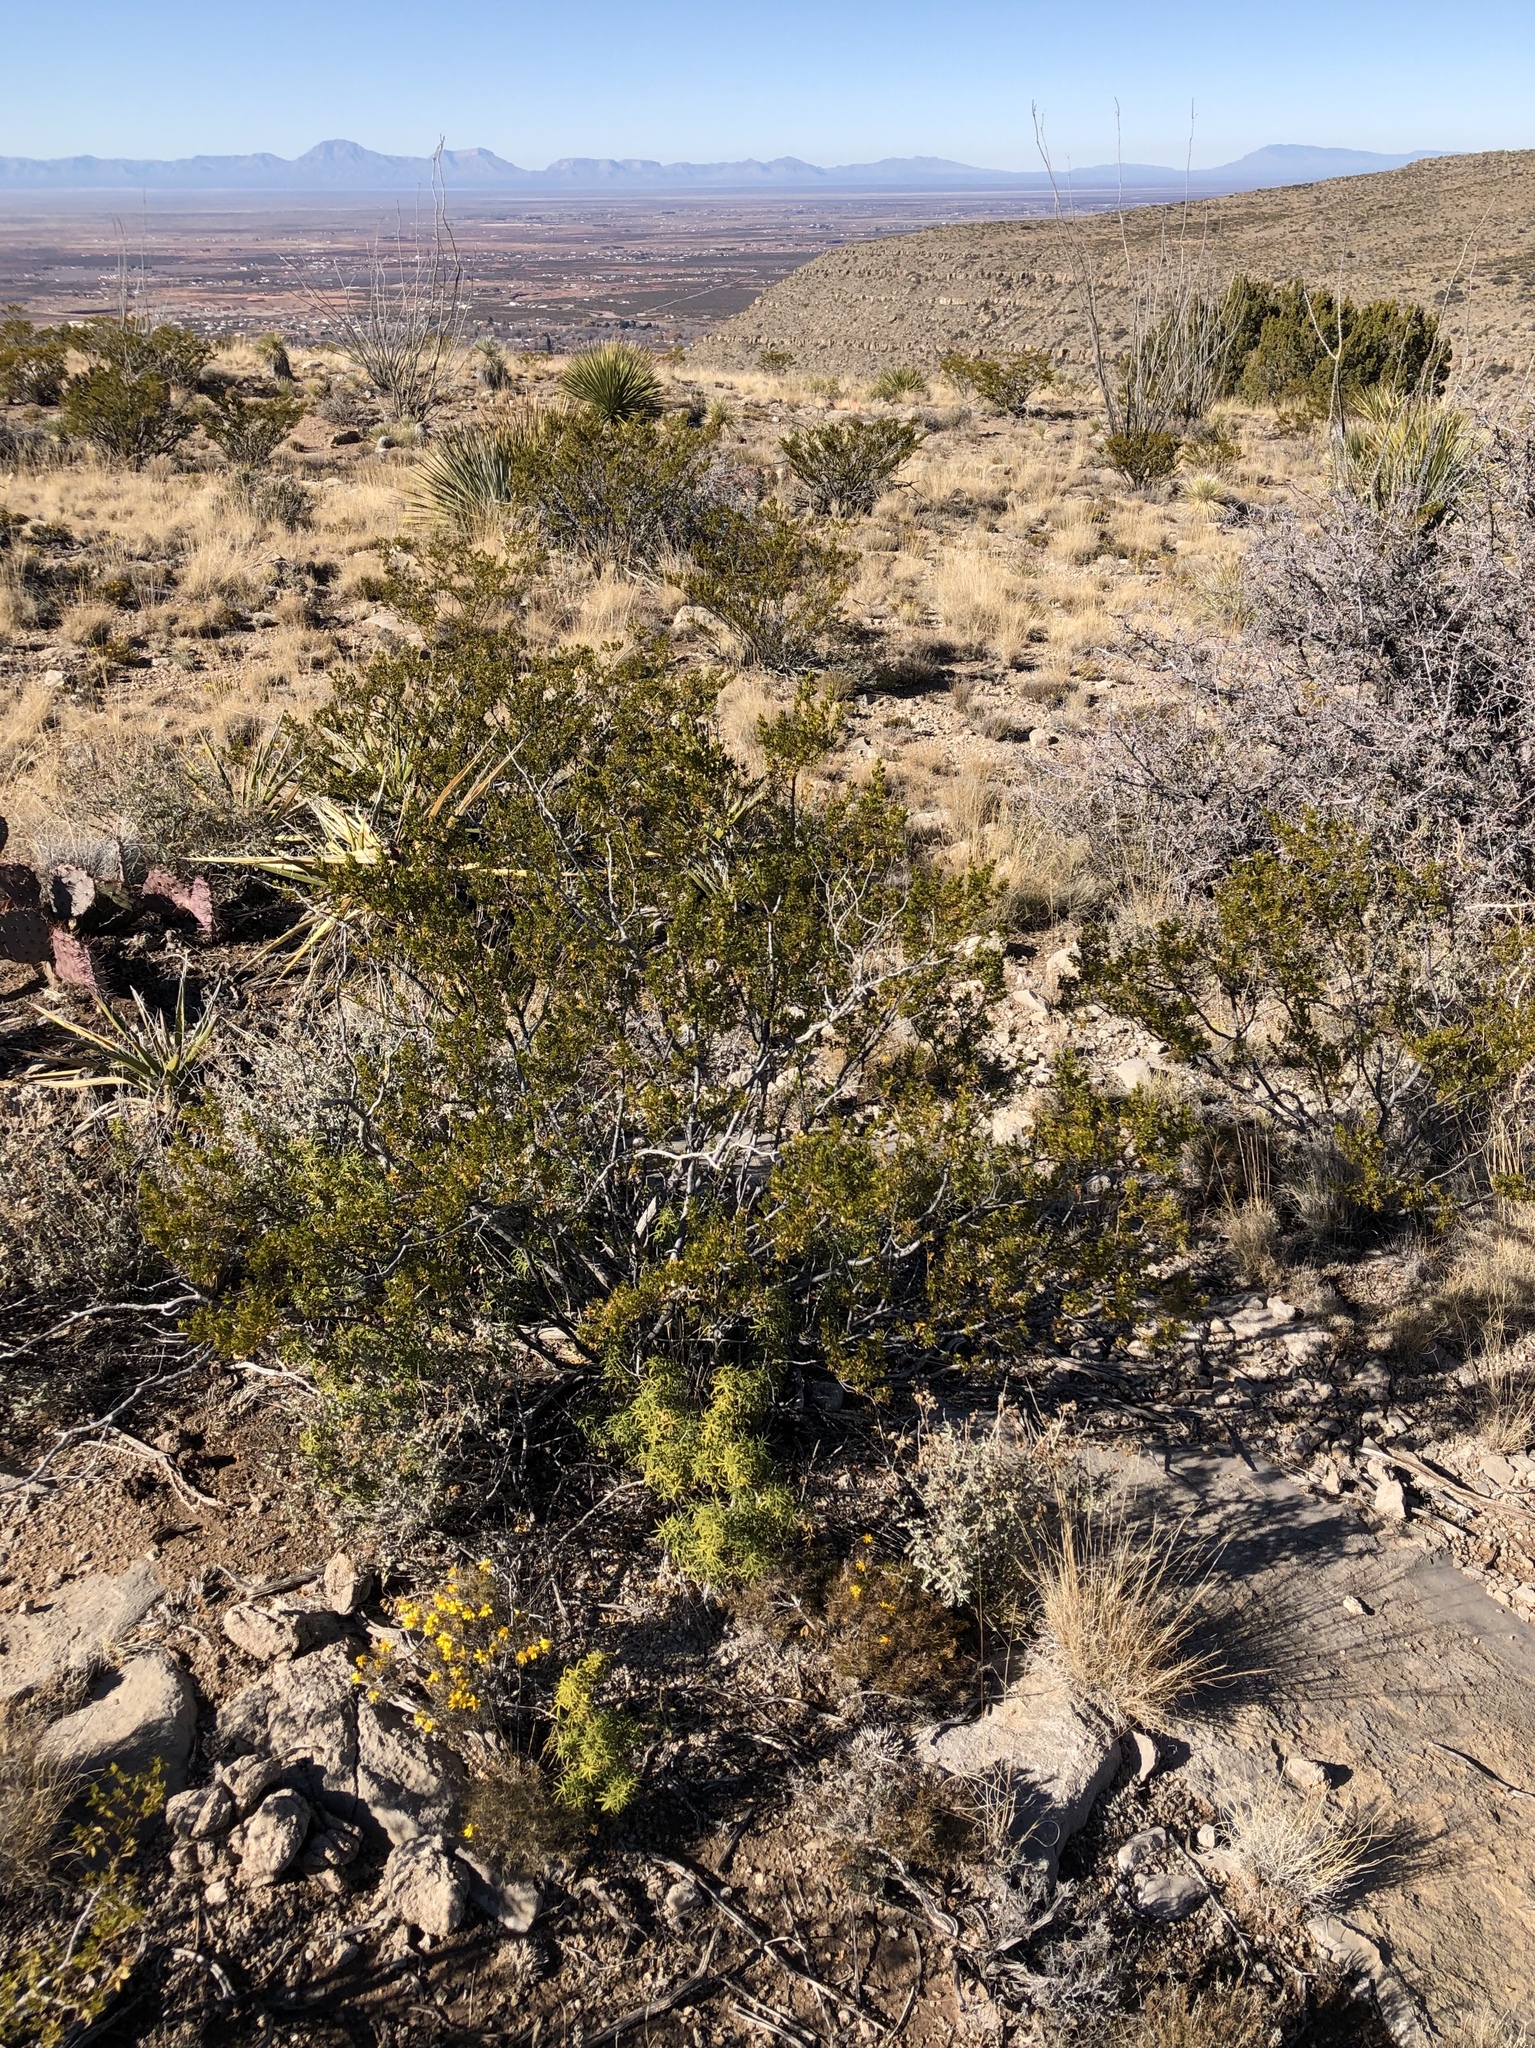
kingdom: Plantae
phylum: Tracheophyta
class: Magnoliopsida
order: Zygophyllales
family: Zygophyllaceae
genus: Larrea
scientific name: Larrea tridentata
